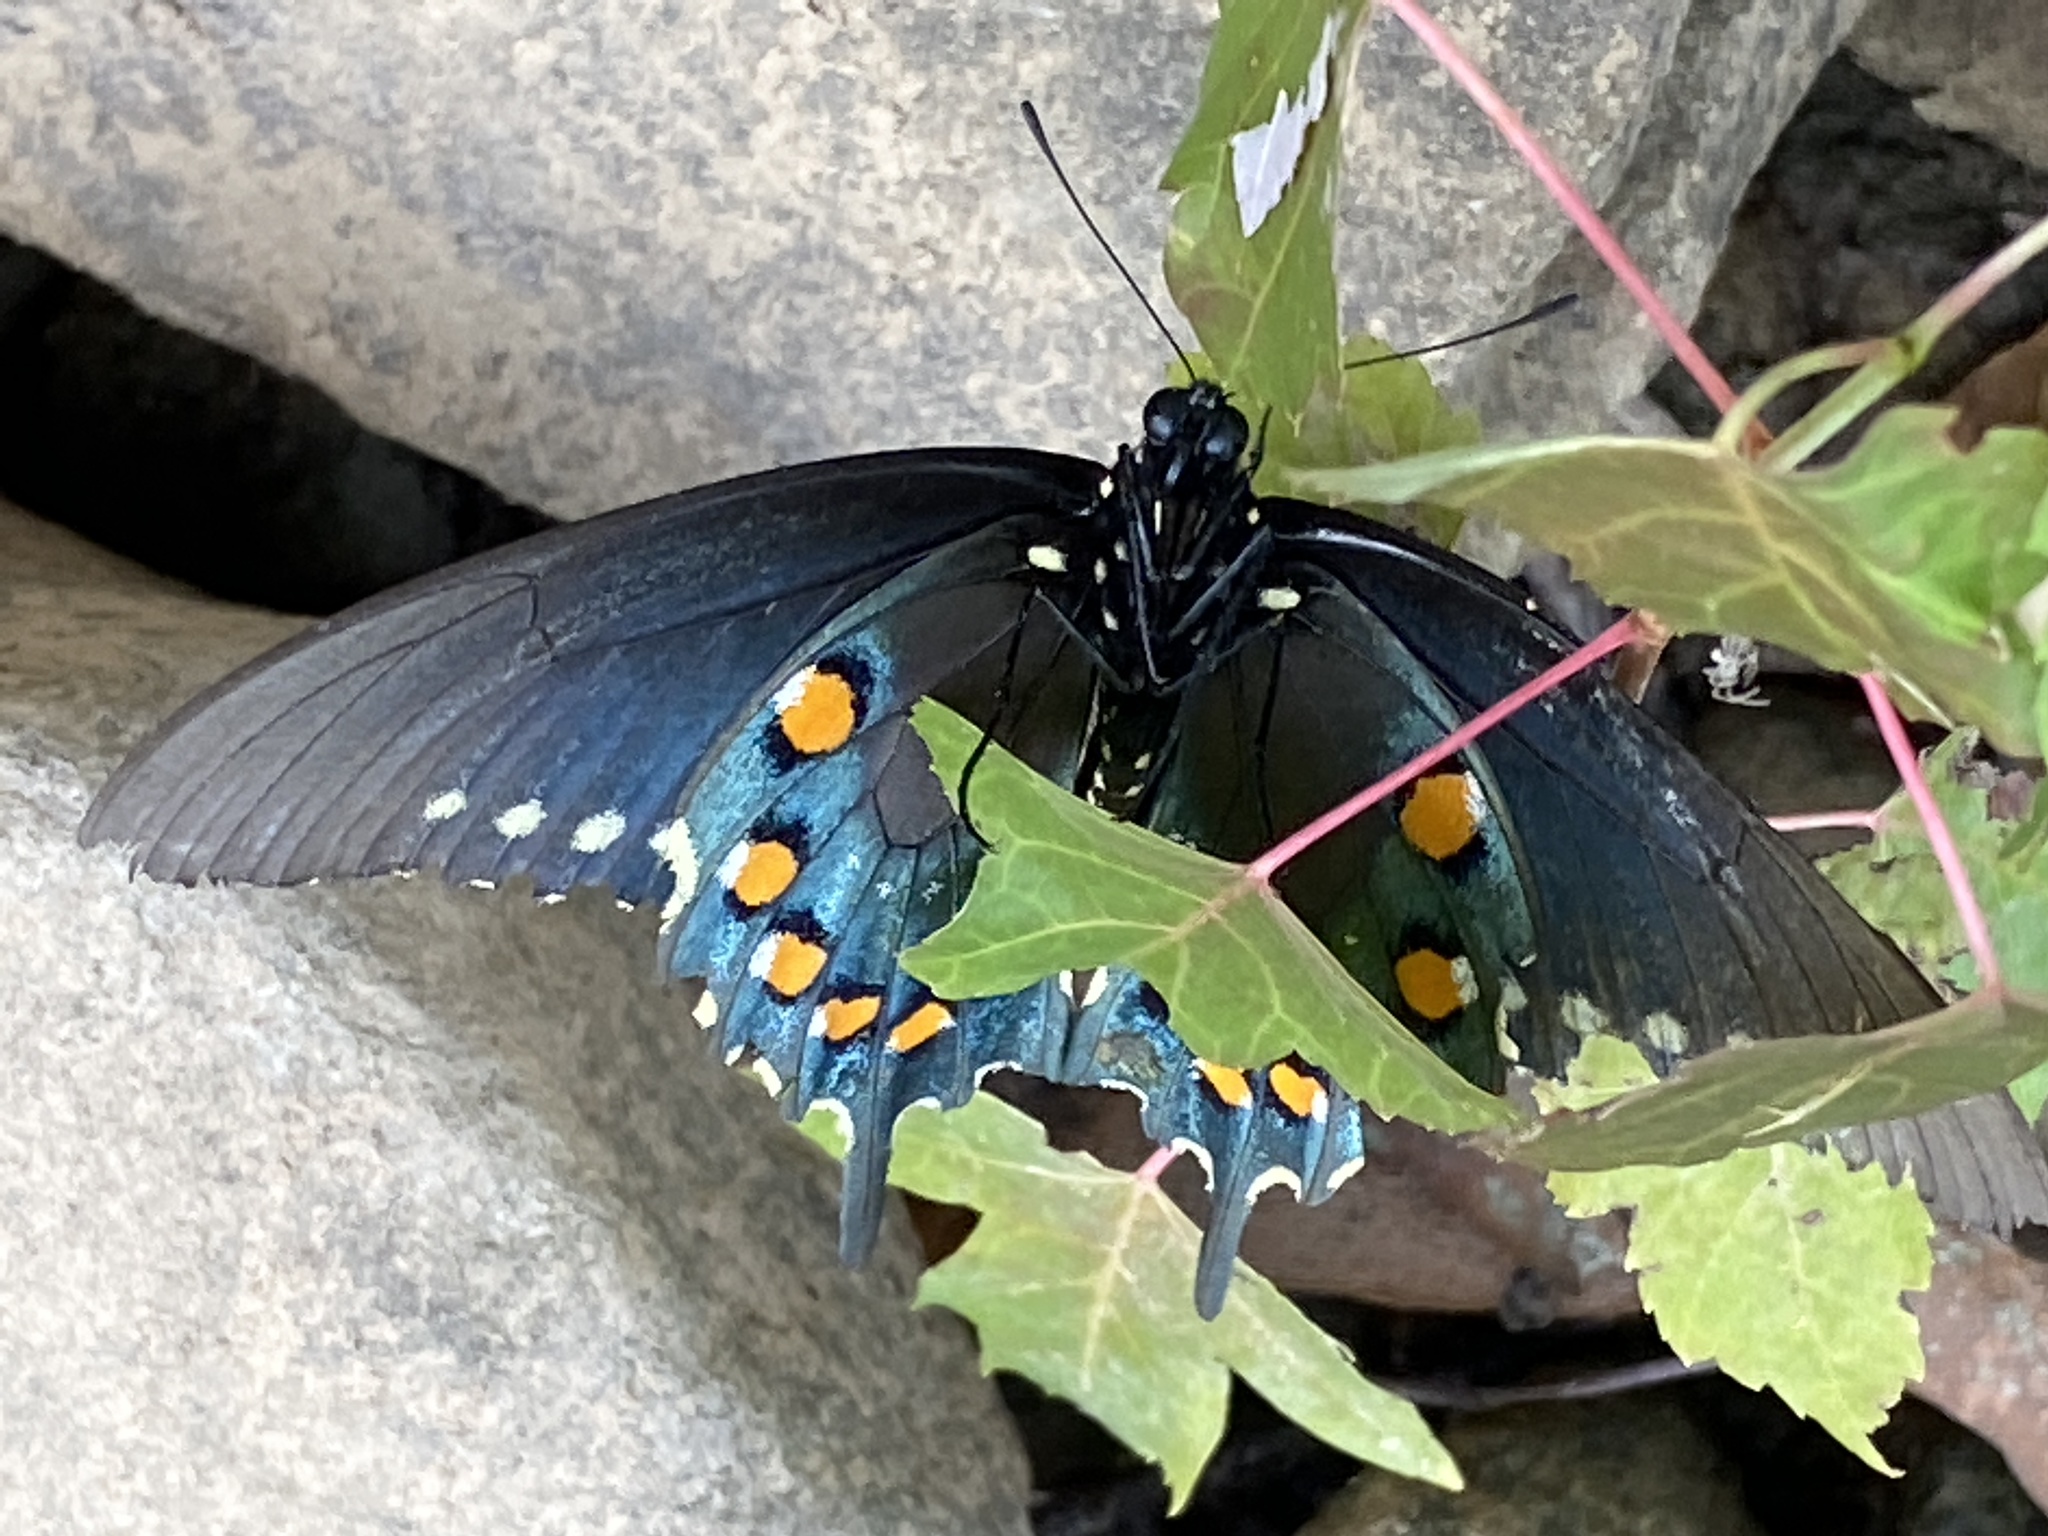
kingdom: Animalia
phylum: Arthropoda
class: Insecta
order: Lepidoptera
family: Papilionidae
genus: Battus
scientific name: Battus philenor
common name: Pipevine swallowtail
